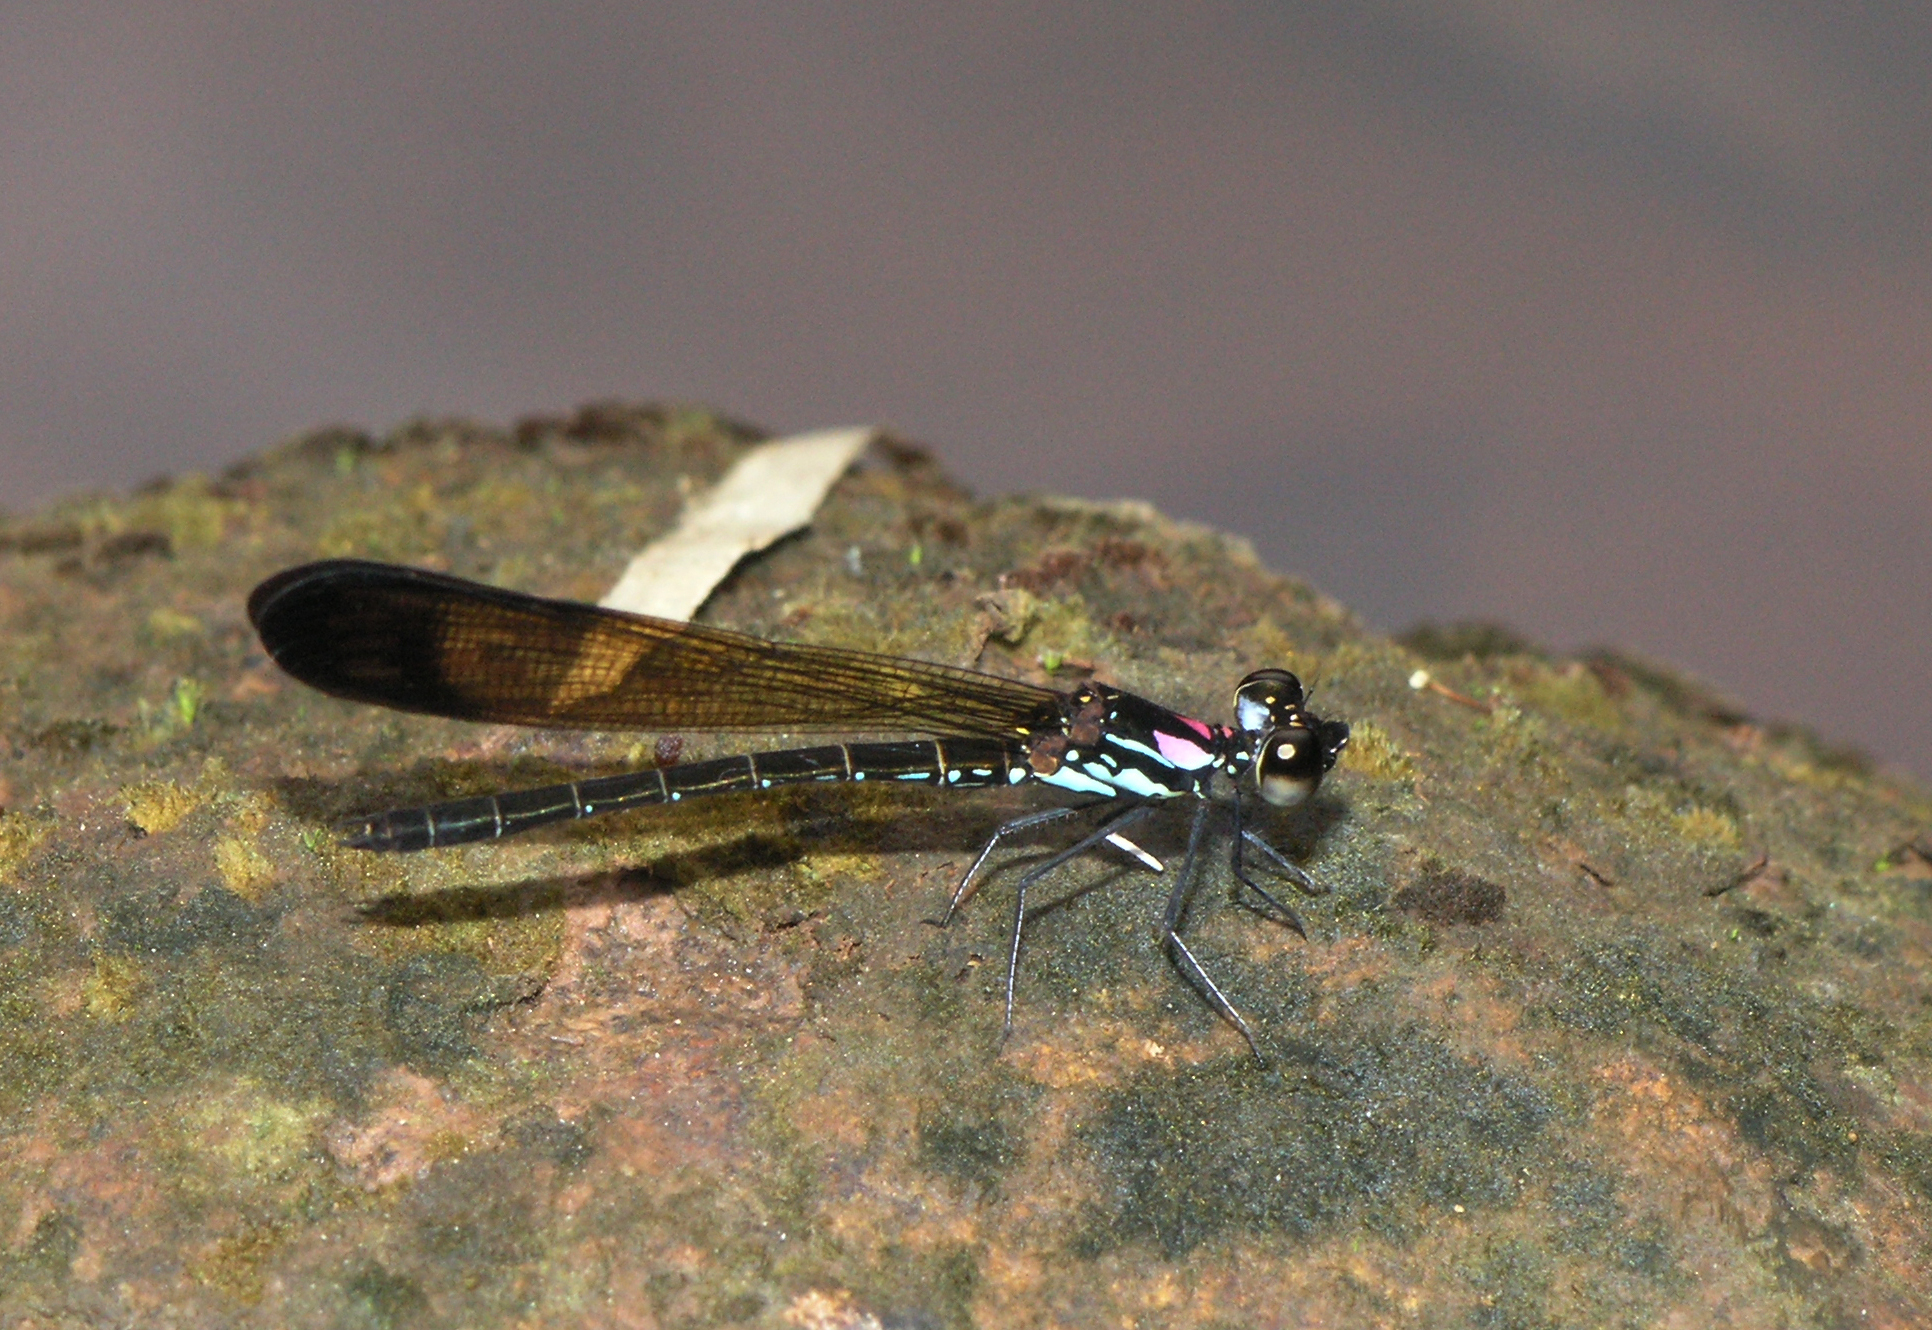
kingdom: Animalia
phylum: Arthropoda
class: Insecta
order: Odonata
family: Chlorocyphidae
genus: Heliocypha
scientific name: Heliocypha biforata
